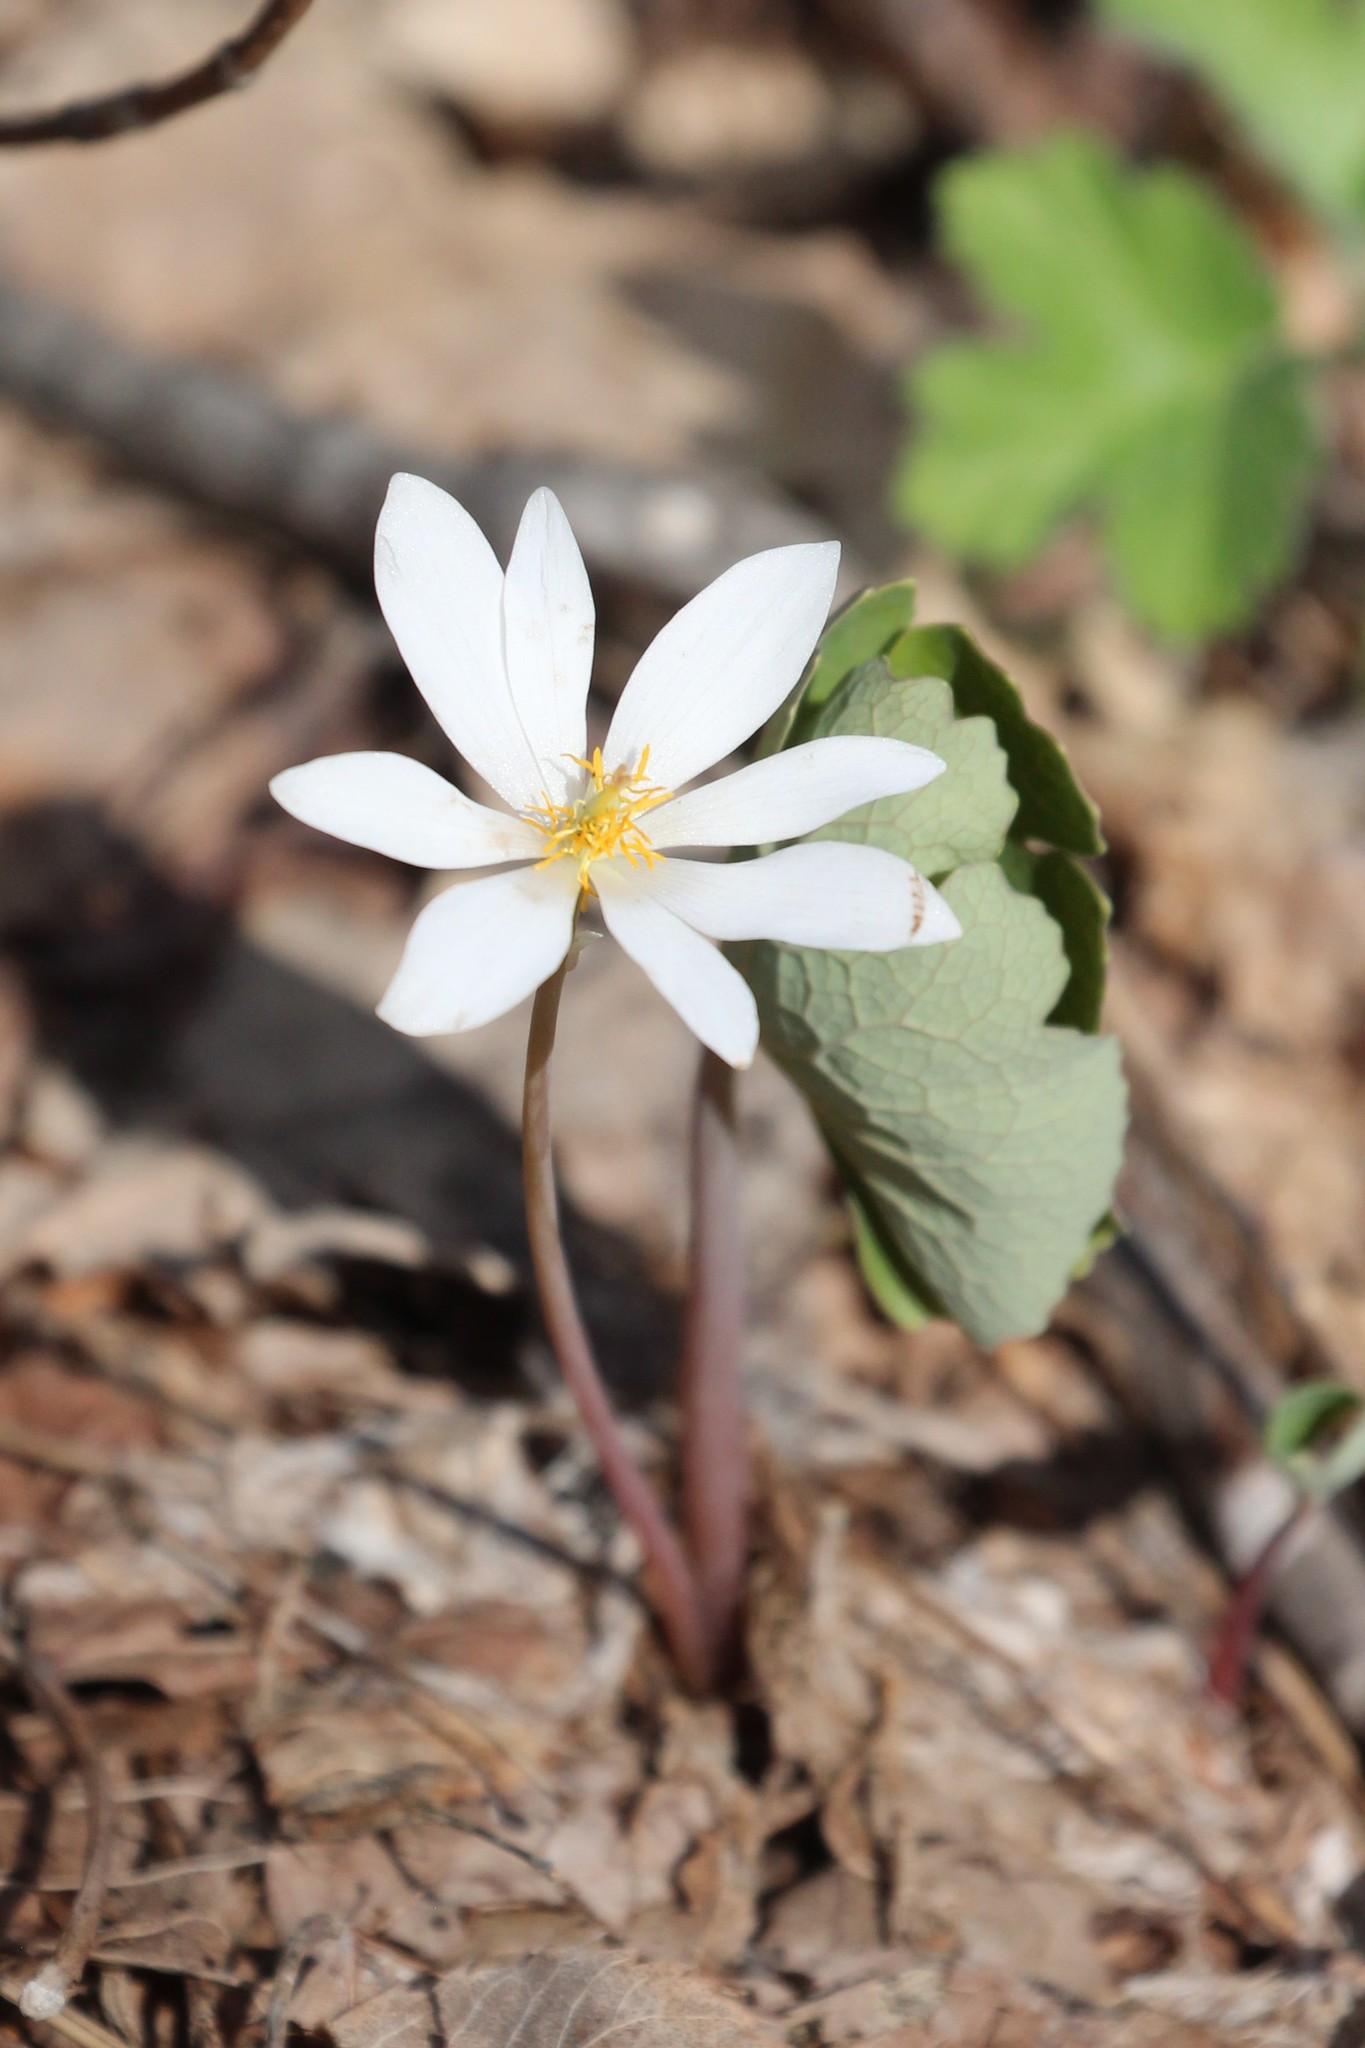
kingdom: Plantae
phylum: Tracheophyta
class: Magnoliopsida
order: Ranunculales
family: Papaveraceae
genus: Sanguinaria
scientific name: Sanguinaria canadensis
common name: Bloodroot
